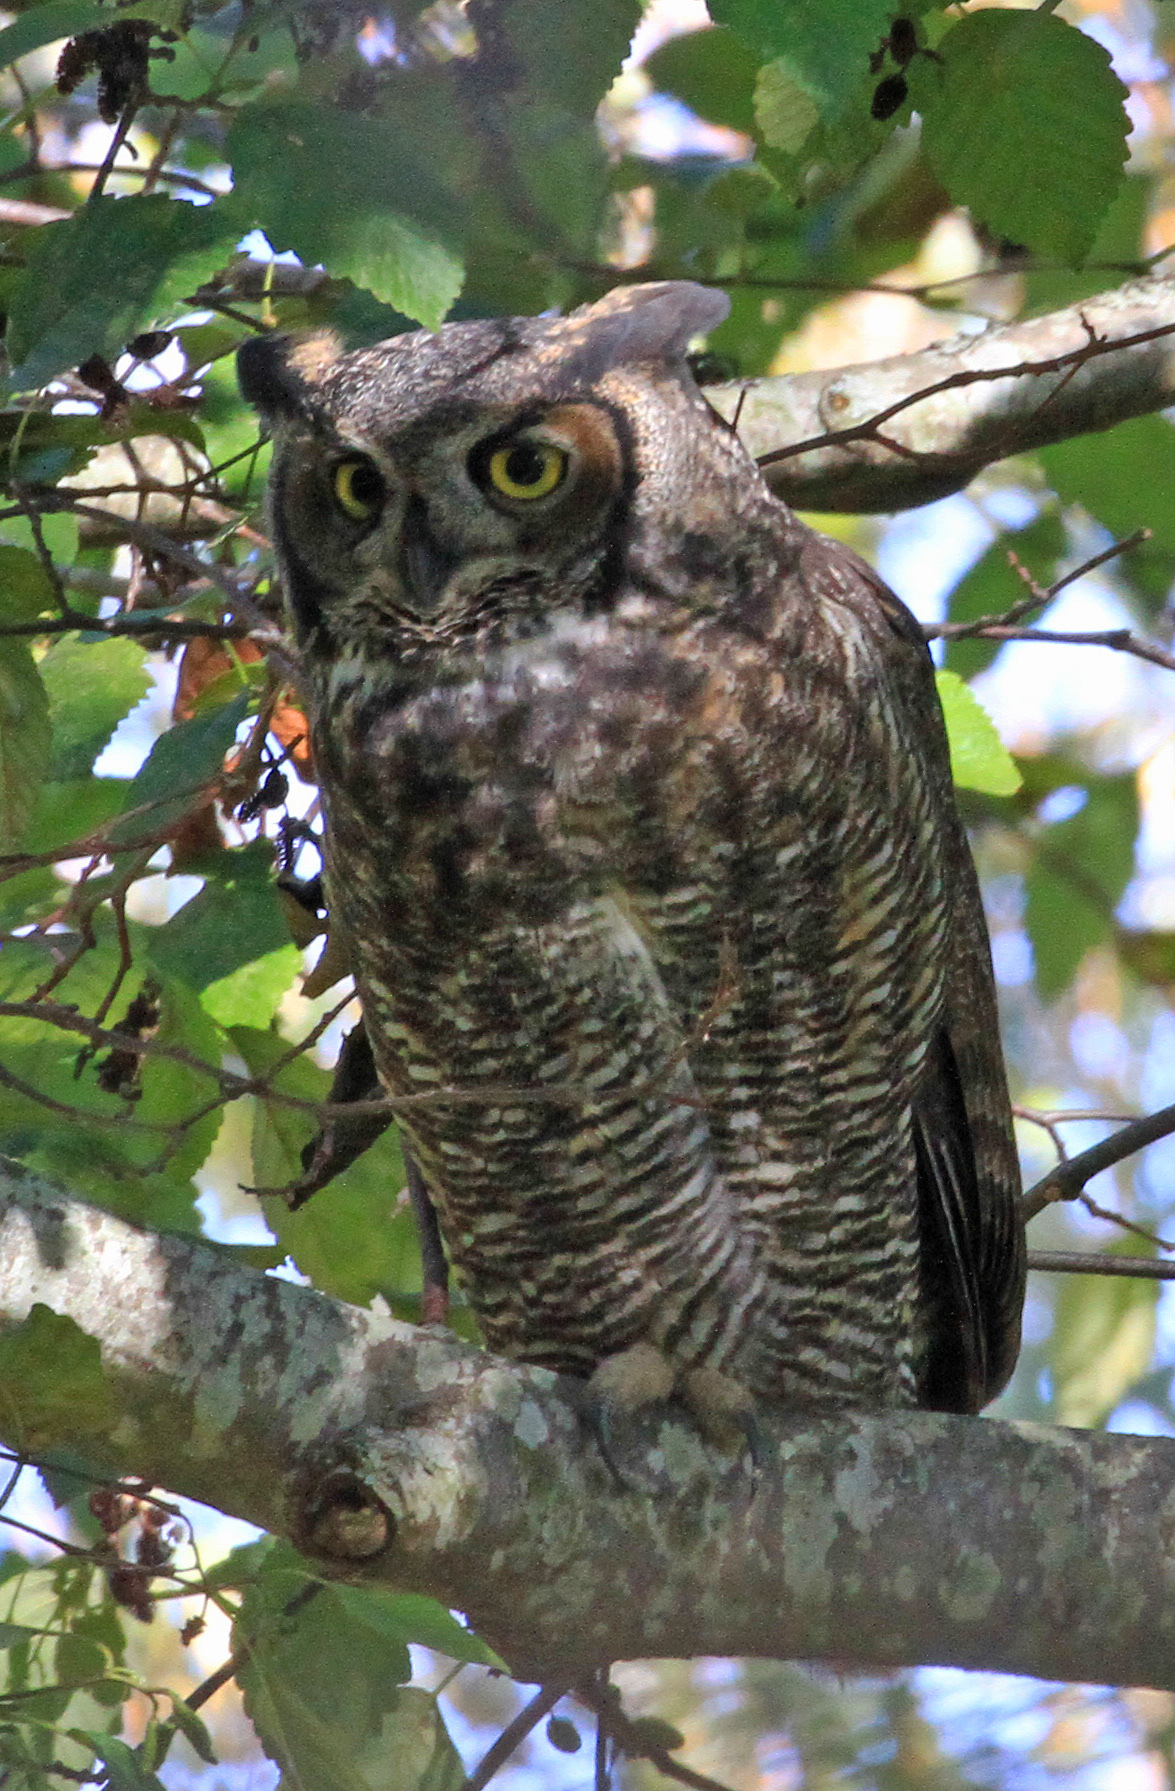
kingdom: Animalia
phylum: Chordata
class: Aves
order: Strigiformes
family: Strigidae
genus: Bubo
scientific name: Bubo virginianus
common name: Great horned owl
